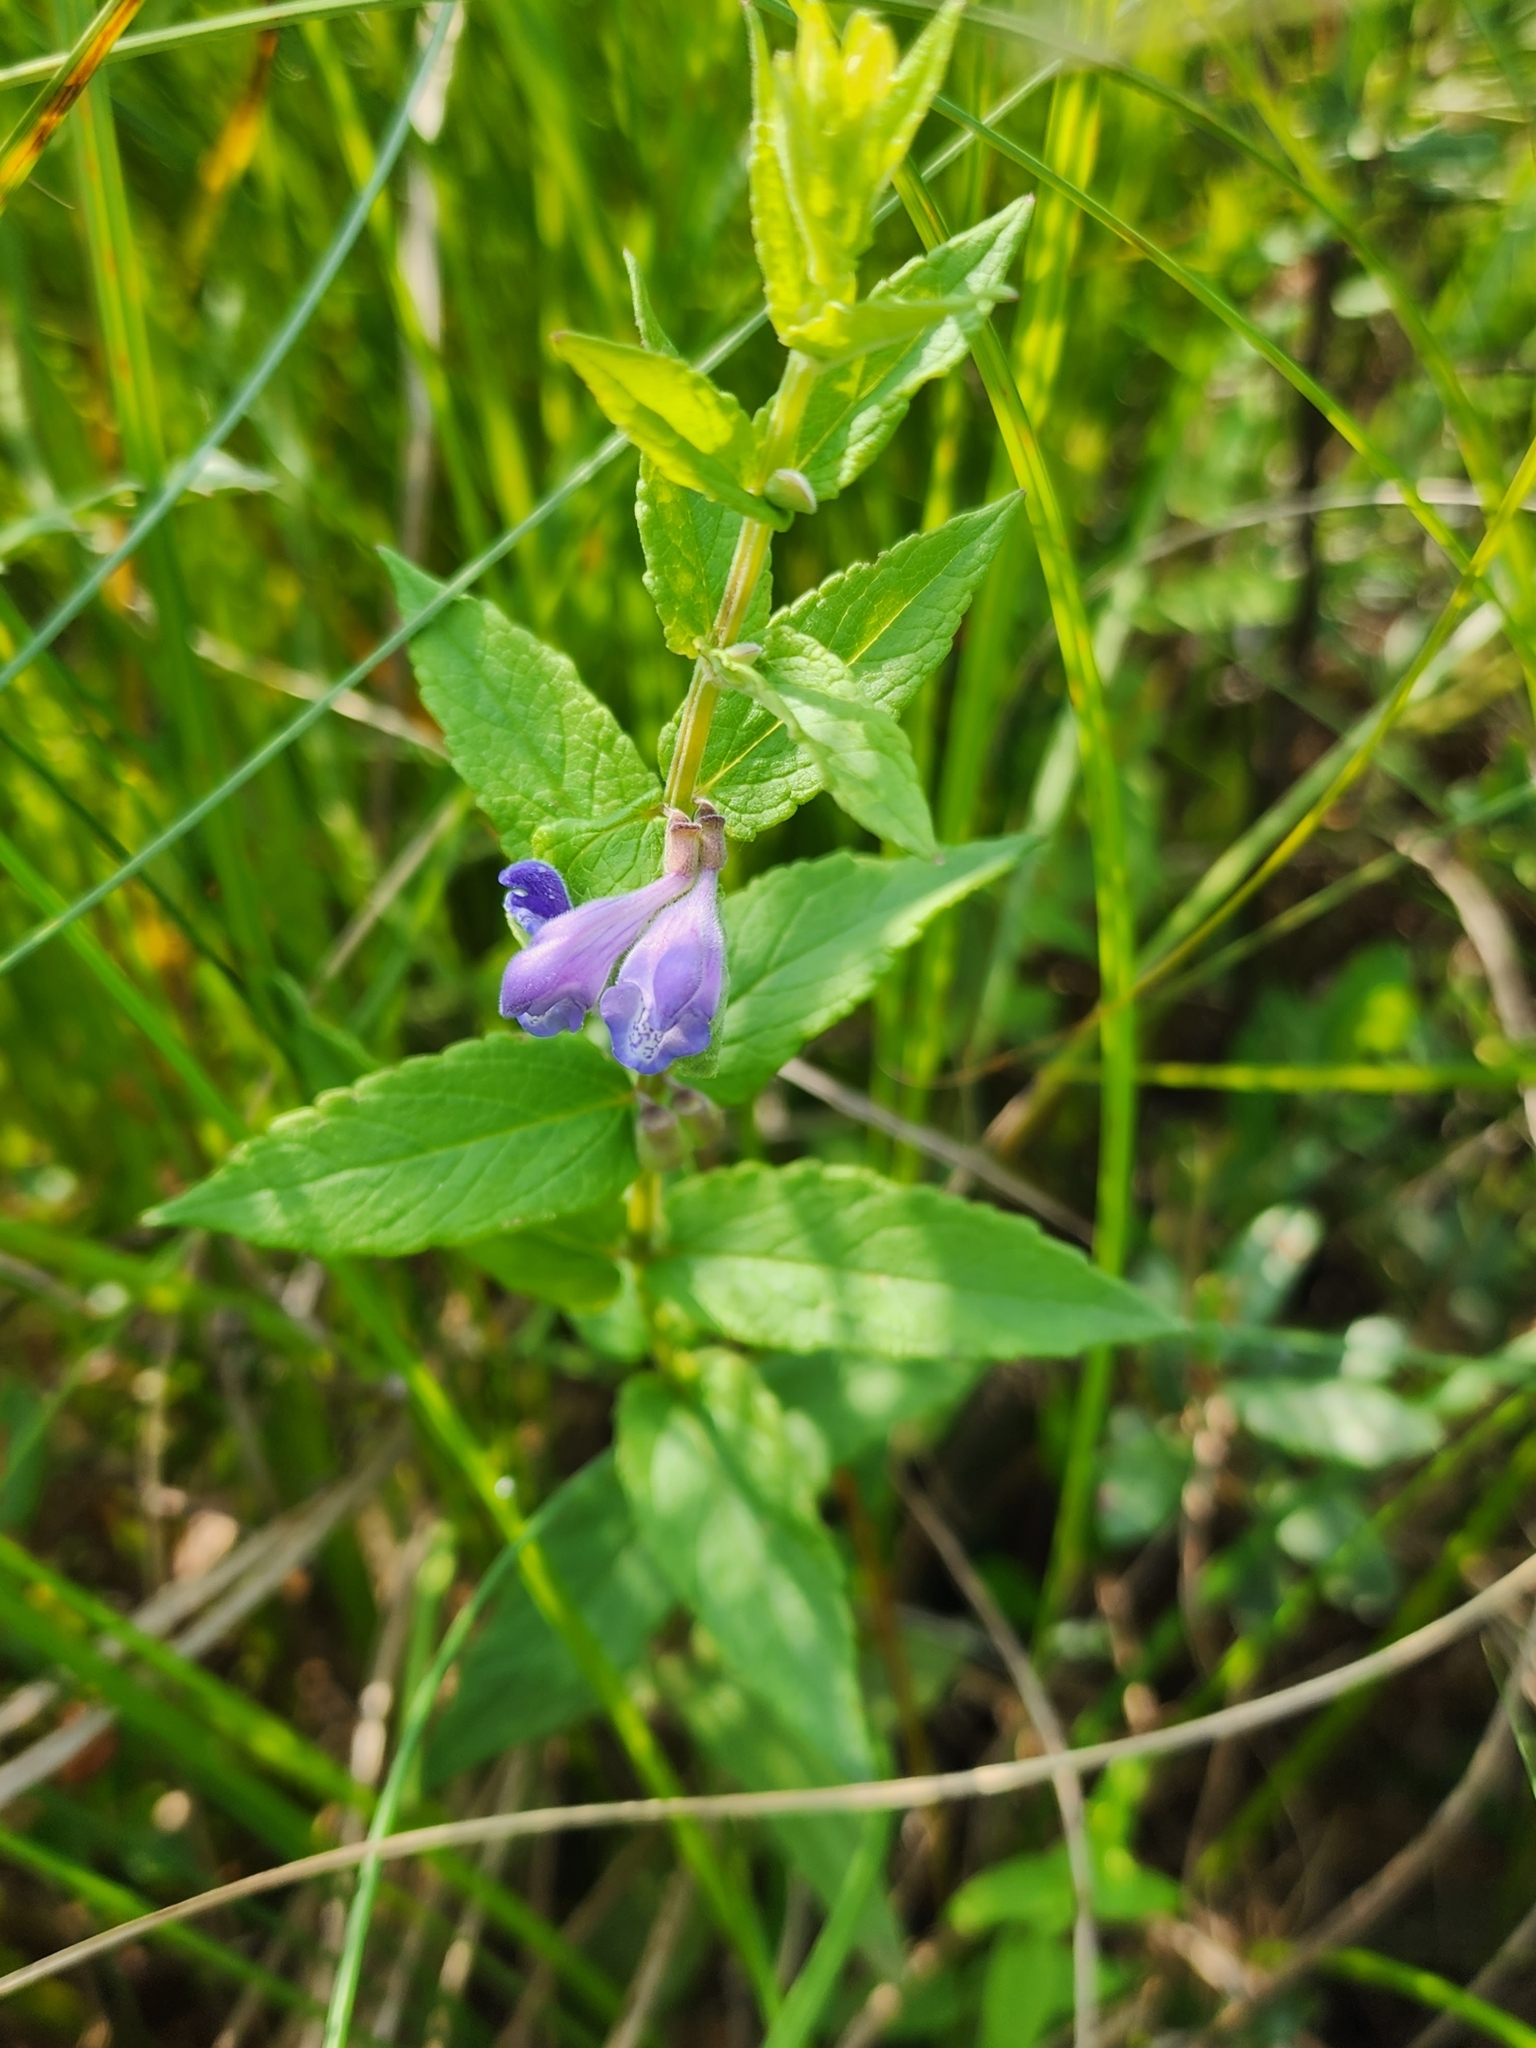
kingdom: Plantae
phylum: Tracheophyta
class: Magnoliopsida
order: Lamiales
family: Lamiaceae
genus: Scutellaria
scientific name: Scutellaria galericulata
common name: Skullcap
